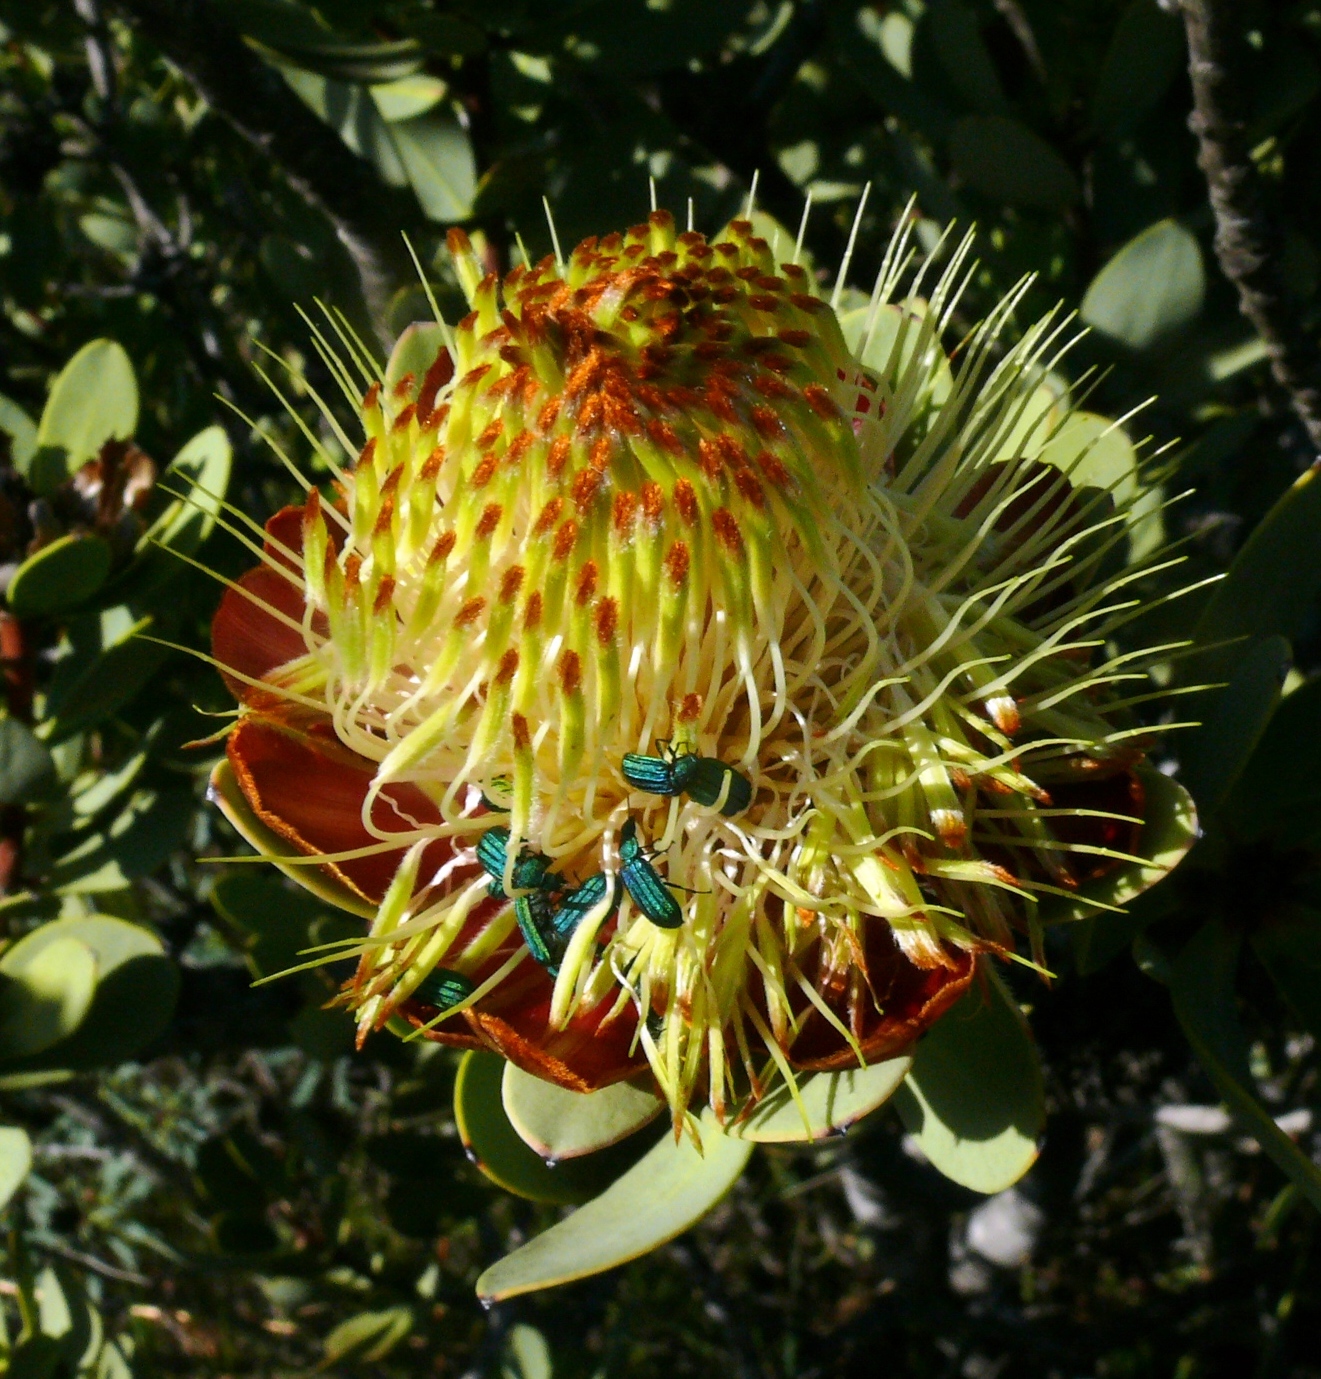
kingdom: Animalia
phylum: Arthropoda
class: Insecta
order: Coleoptera
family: Melyridae
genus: Melyris
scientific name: Melyris
